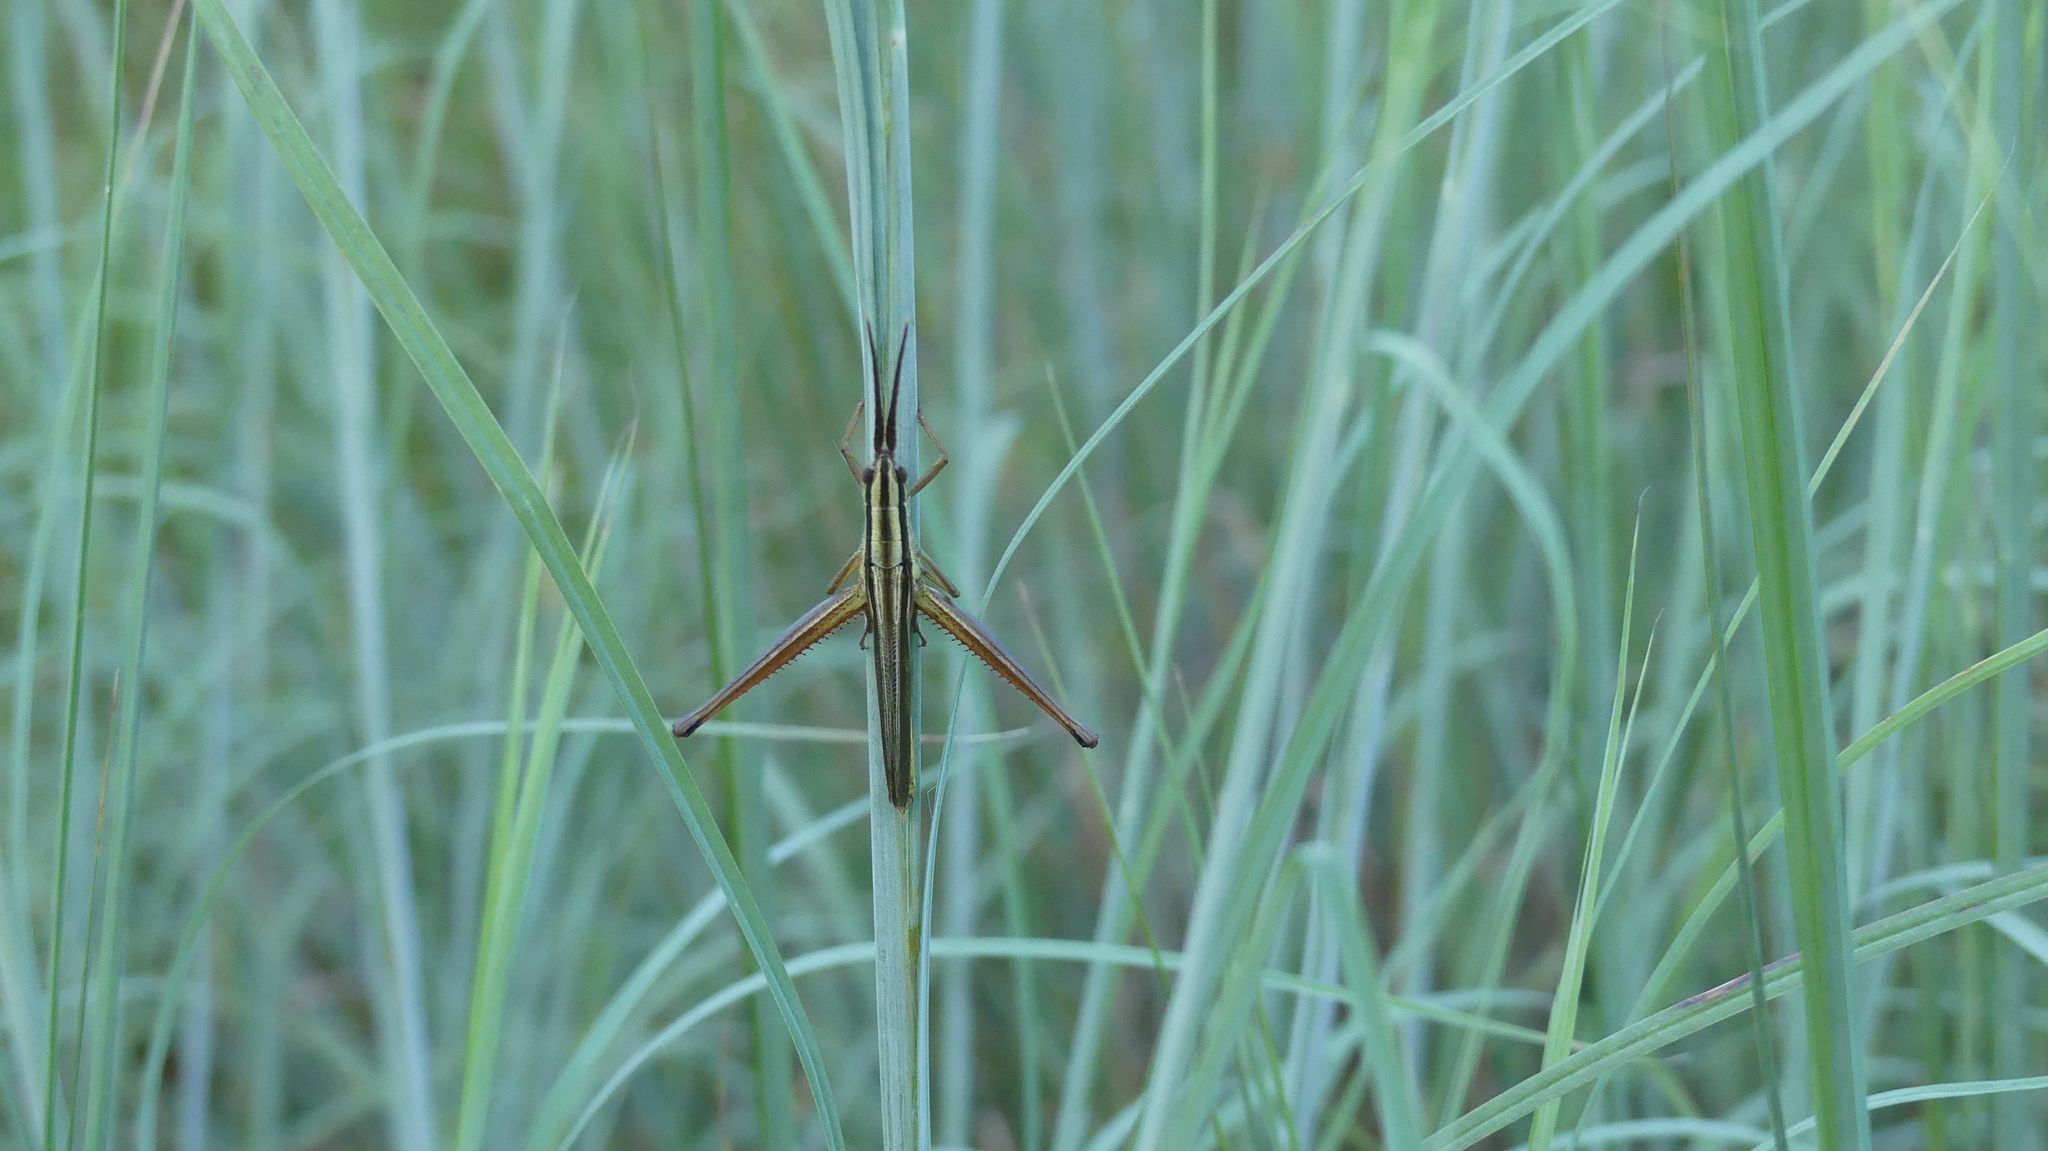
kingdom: Animalia
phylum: Arthropoda
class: Insecta
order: Orthoptera
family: Acrididae
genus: Mermiria
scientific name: Mermiria intertexta
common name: Eastern mermiria grasshopper
